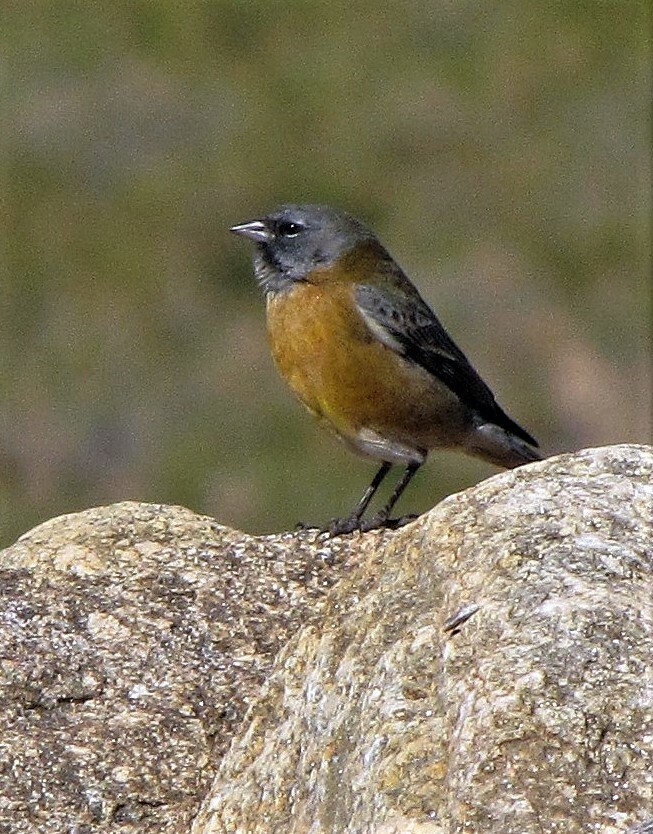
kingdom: Animalia
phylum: Chordata
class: Aves
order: Passeriformes
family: Thraupidae
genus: Phrygilus
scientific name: Phrygilus gayi
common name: Grey-hooded sierra finch
